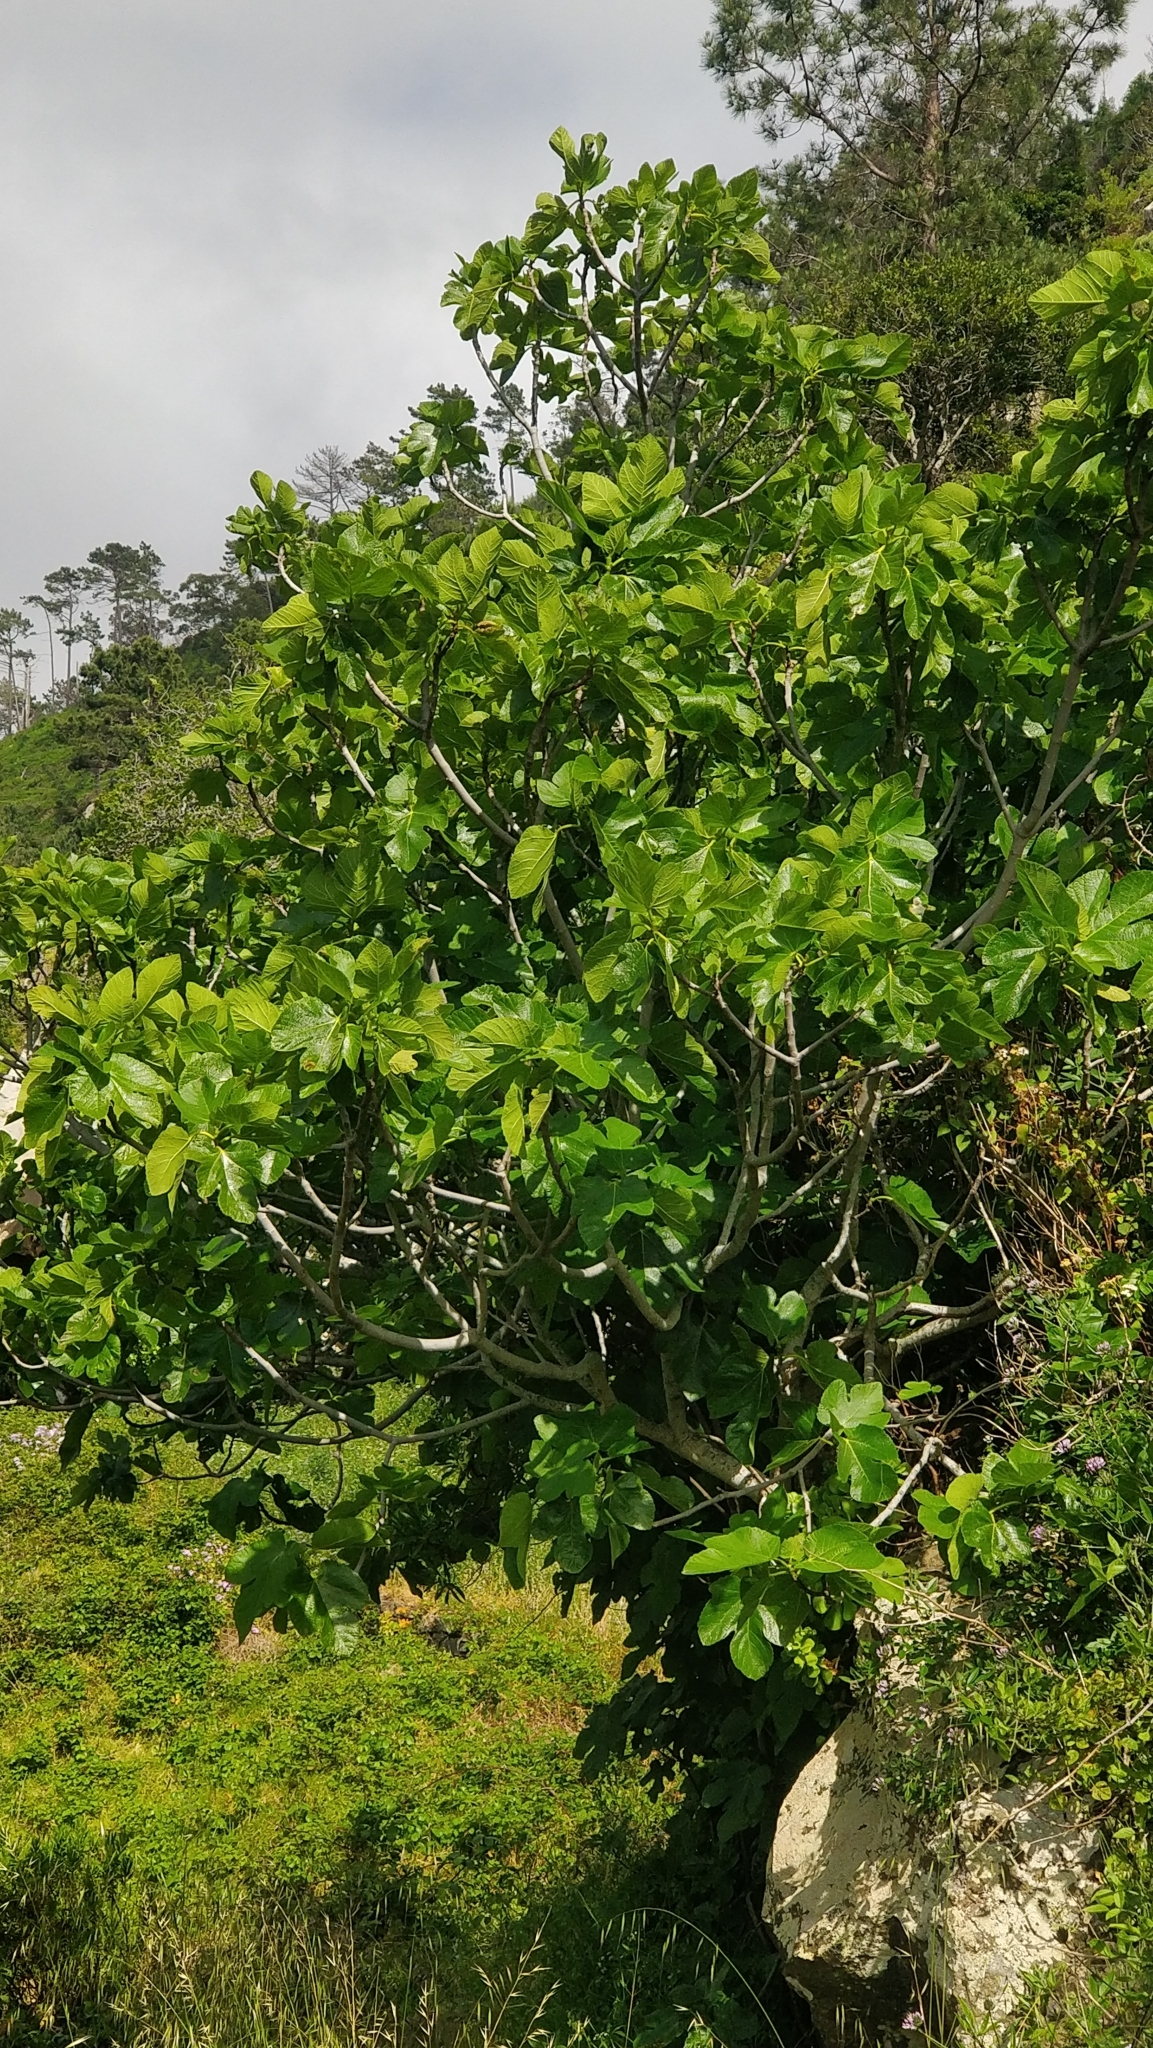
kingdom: Plantae
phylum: Tracheophyta
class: Magnoliopsida
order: Rosales
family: Moraceae
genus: Ficus
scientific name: Ficus carica
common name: Fig
